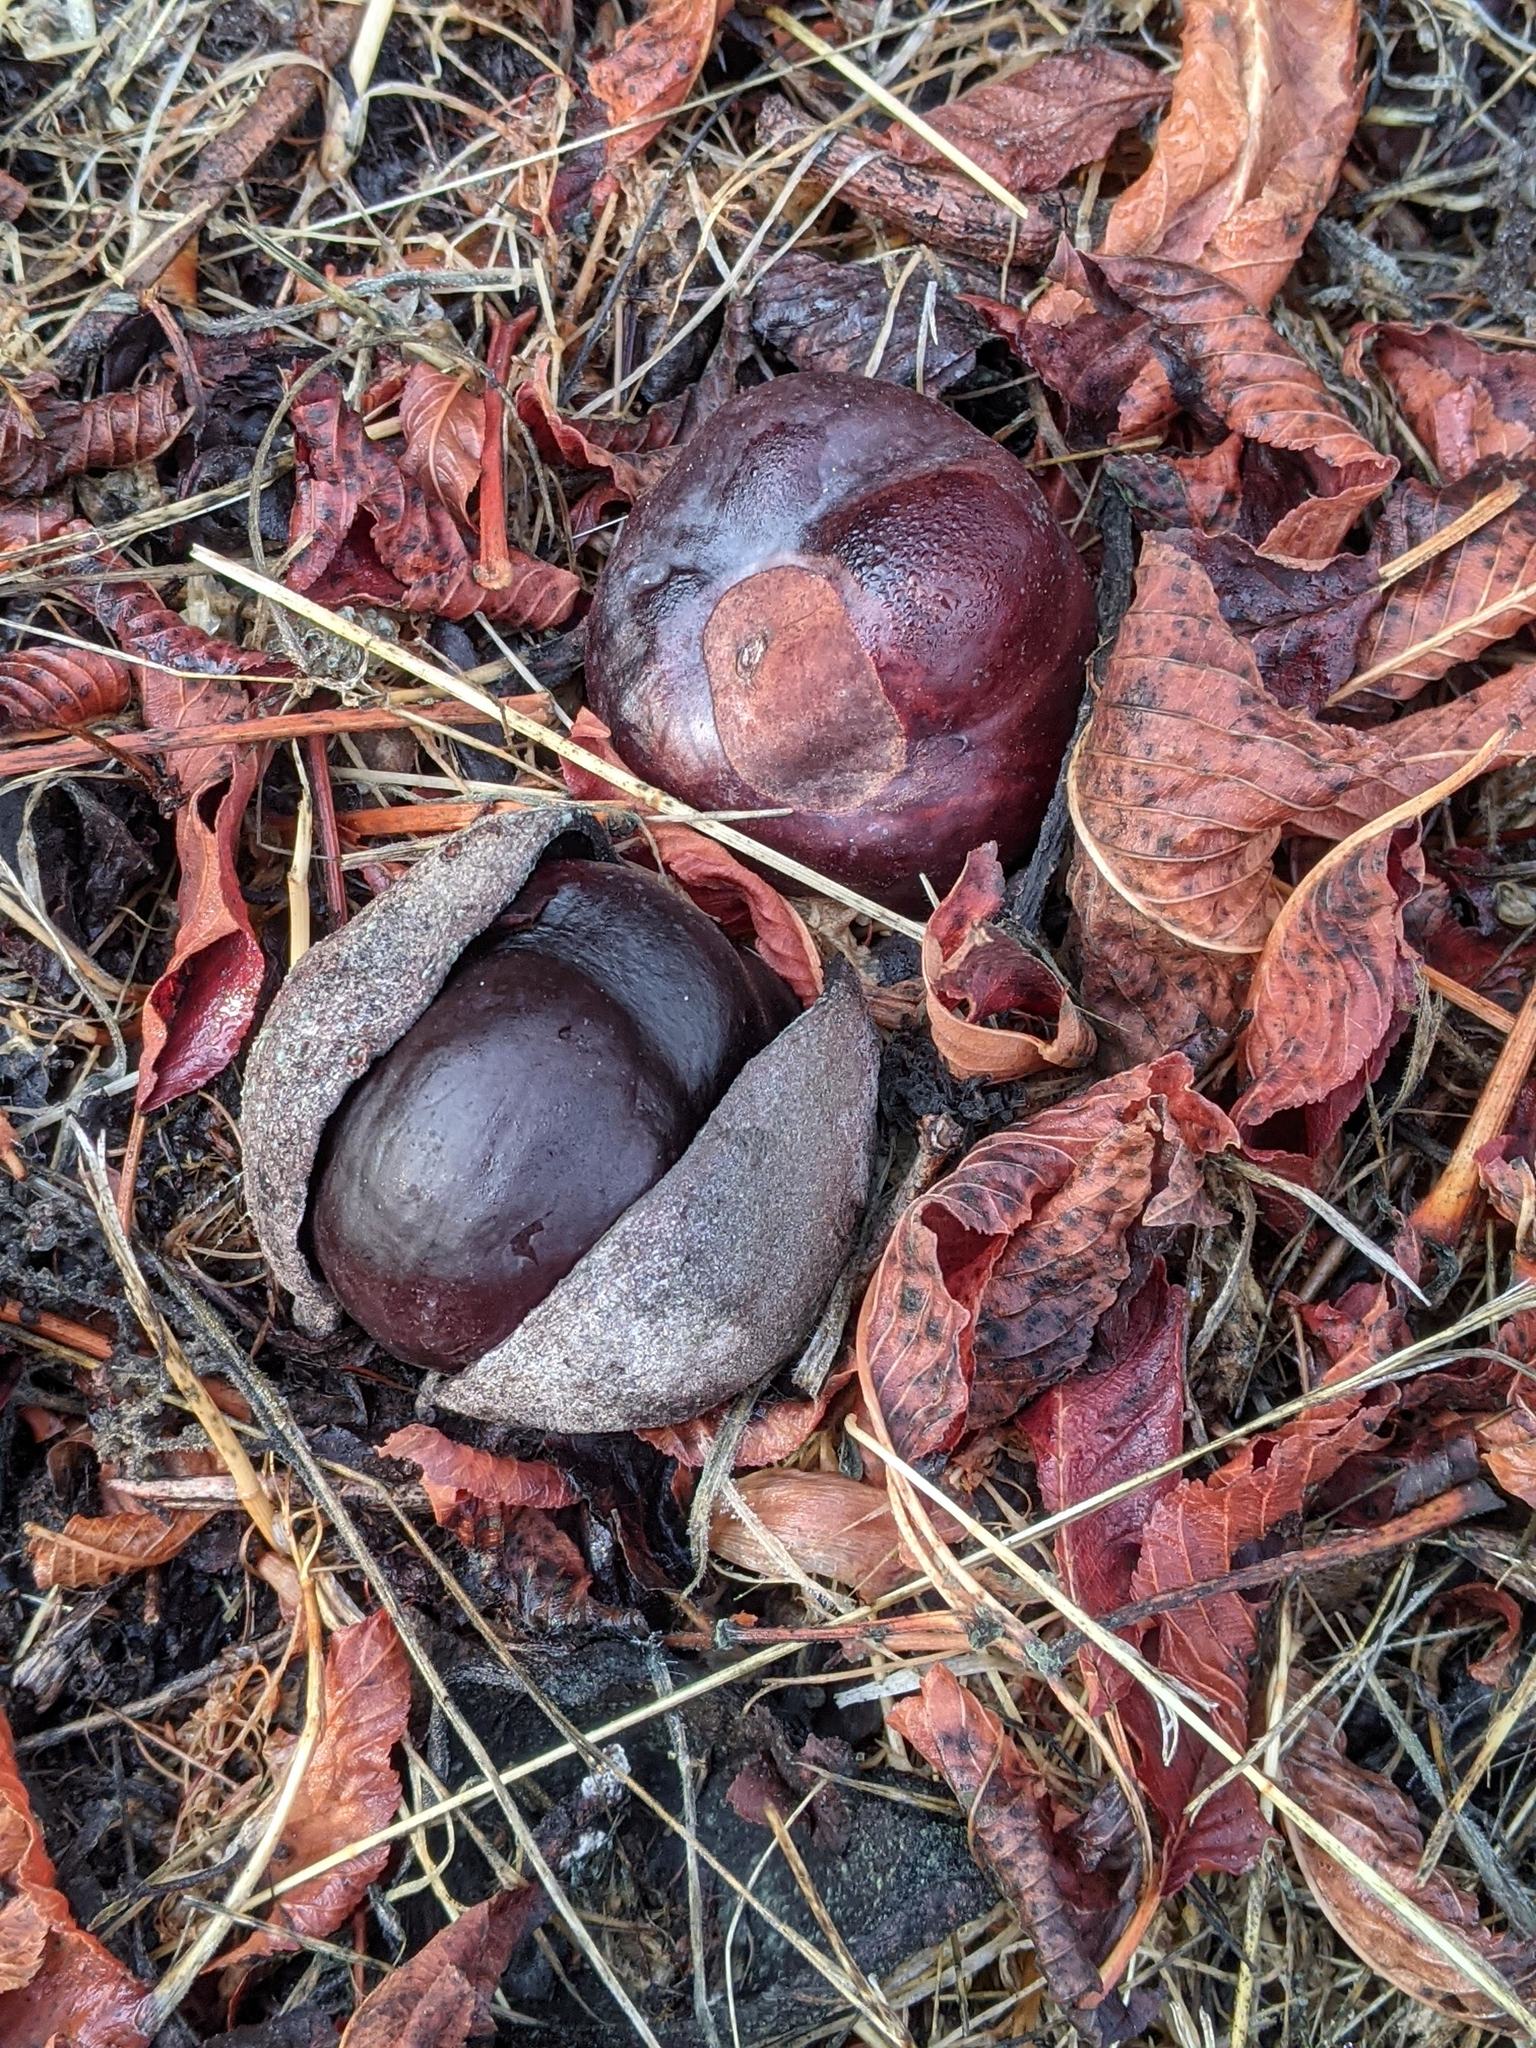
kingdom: Plantae
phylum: Tracheophyta
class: Magnoliopsida
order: Sapindales
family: Sapindaceae
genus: Aesculus
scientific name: Aesculus californica
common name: California buckeye
